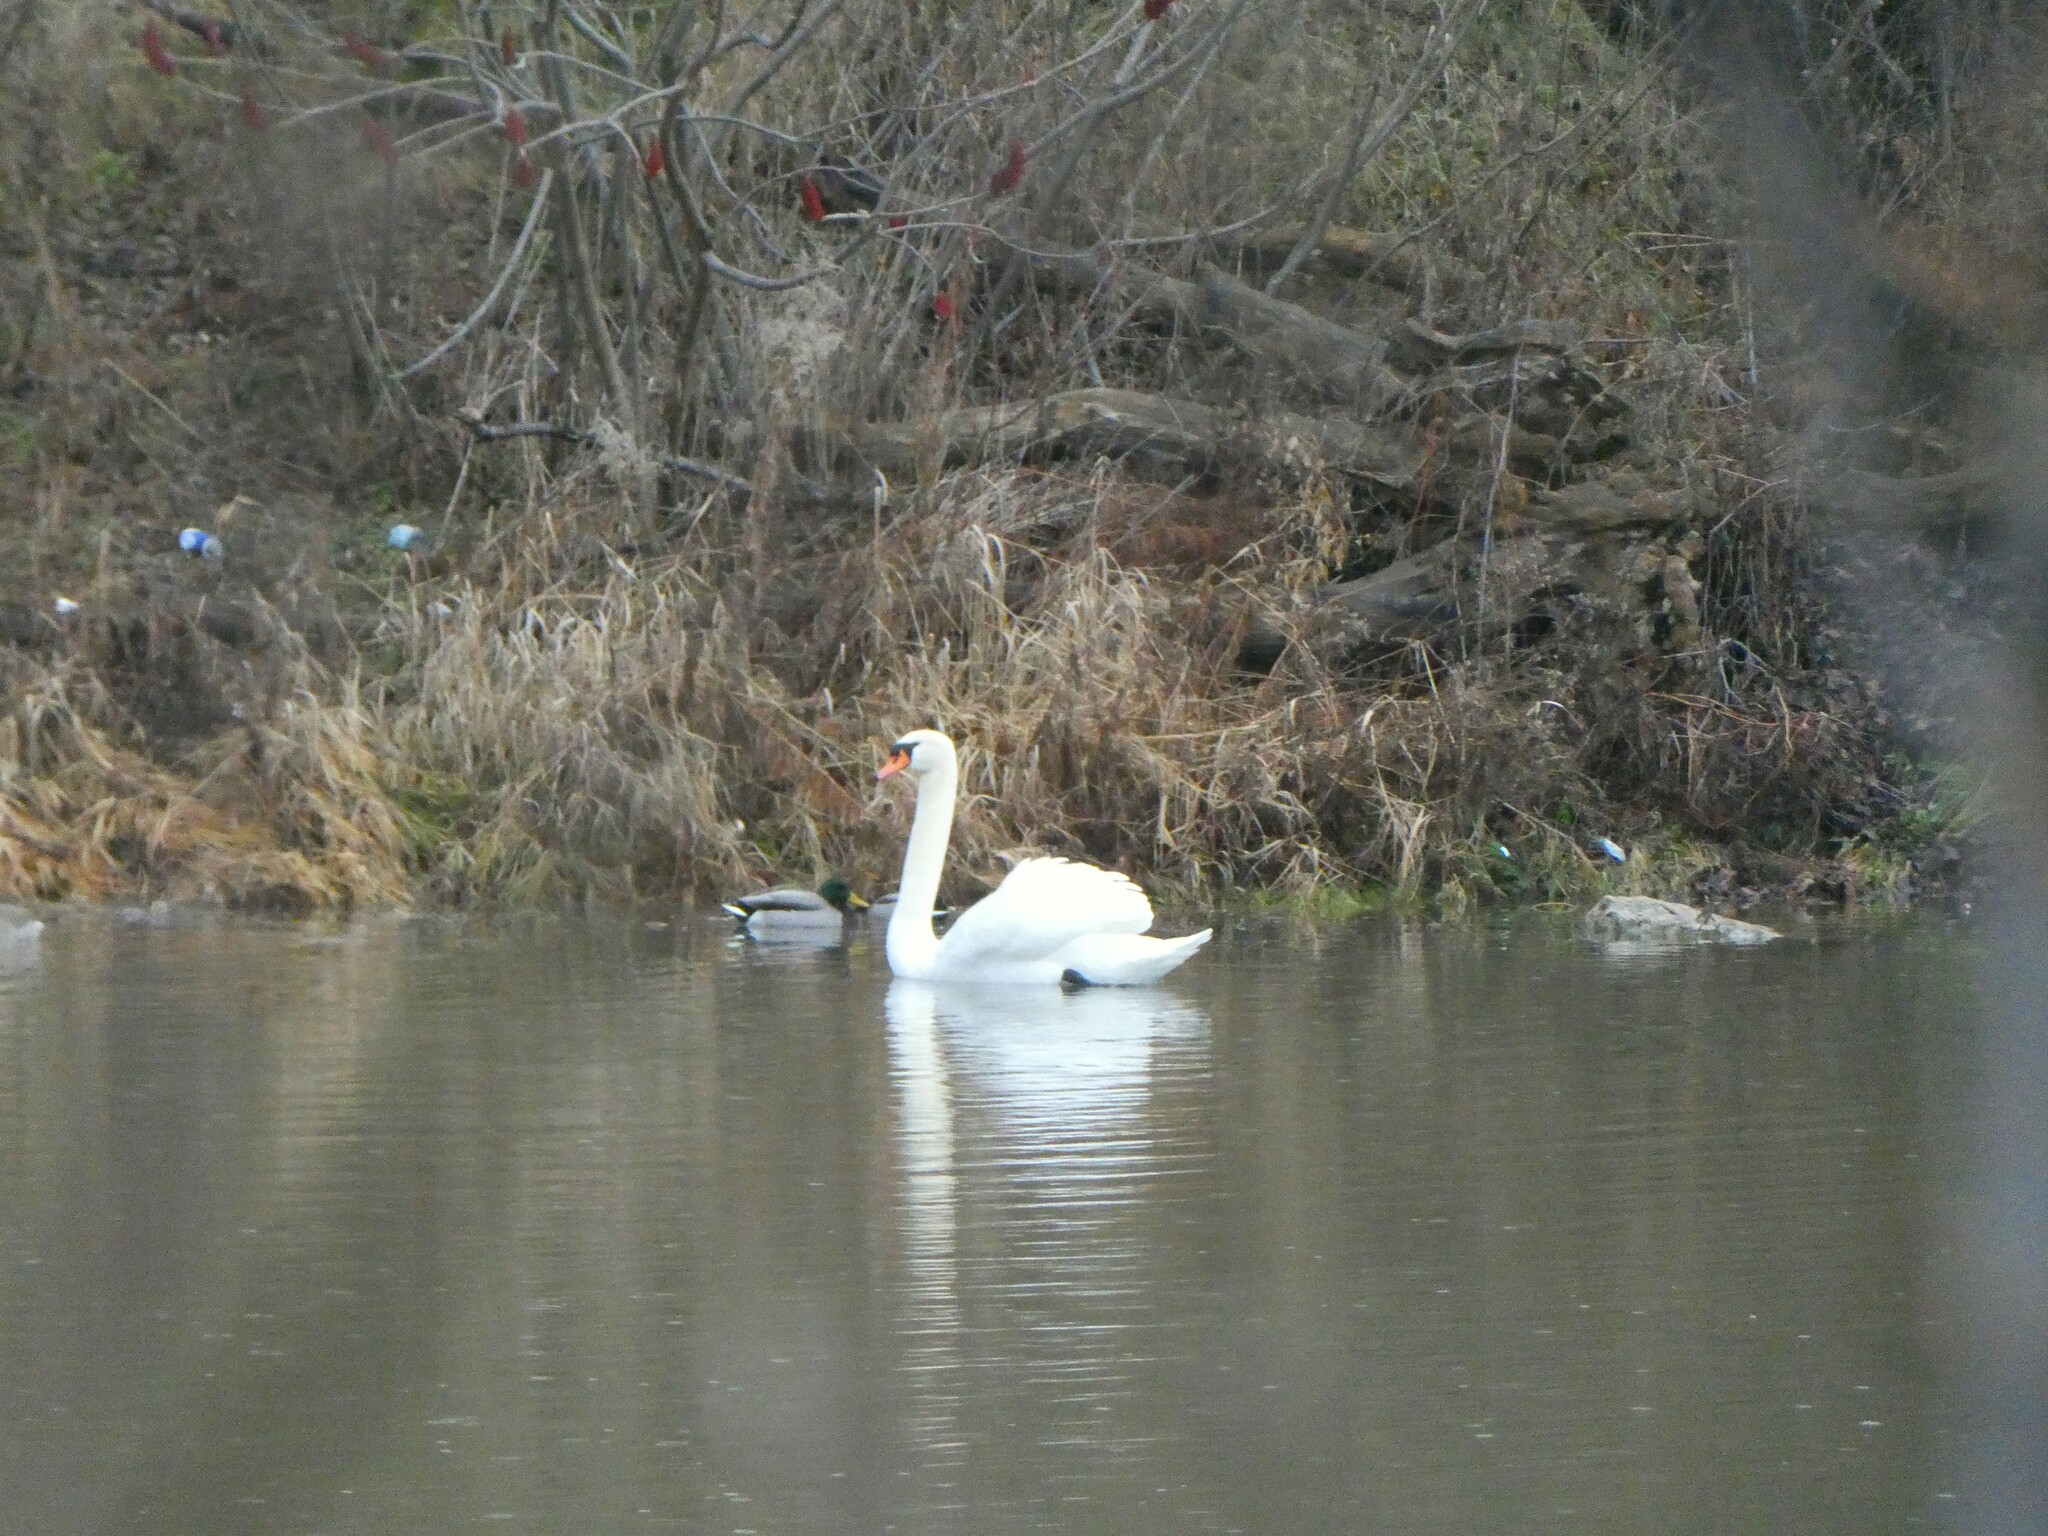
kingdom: Animalia
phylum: Chordata
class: Aves
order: Anseriformes
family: Anatidae
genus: Cygnus
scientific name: Cygnus olor
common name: Mute swan
